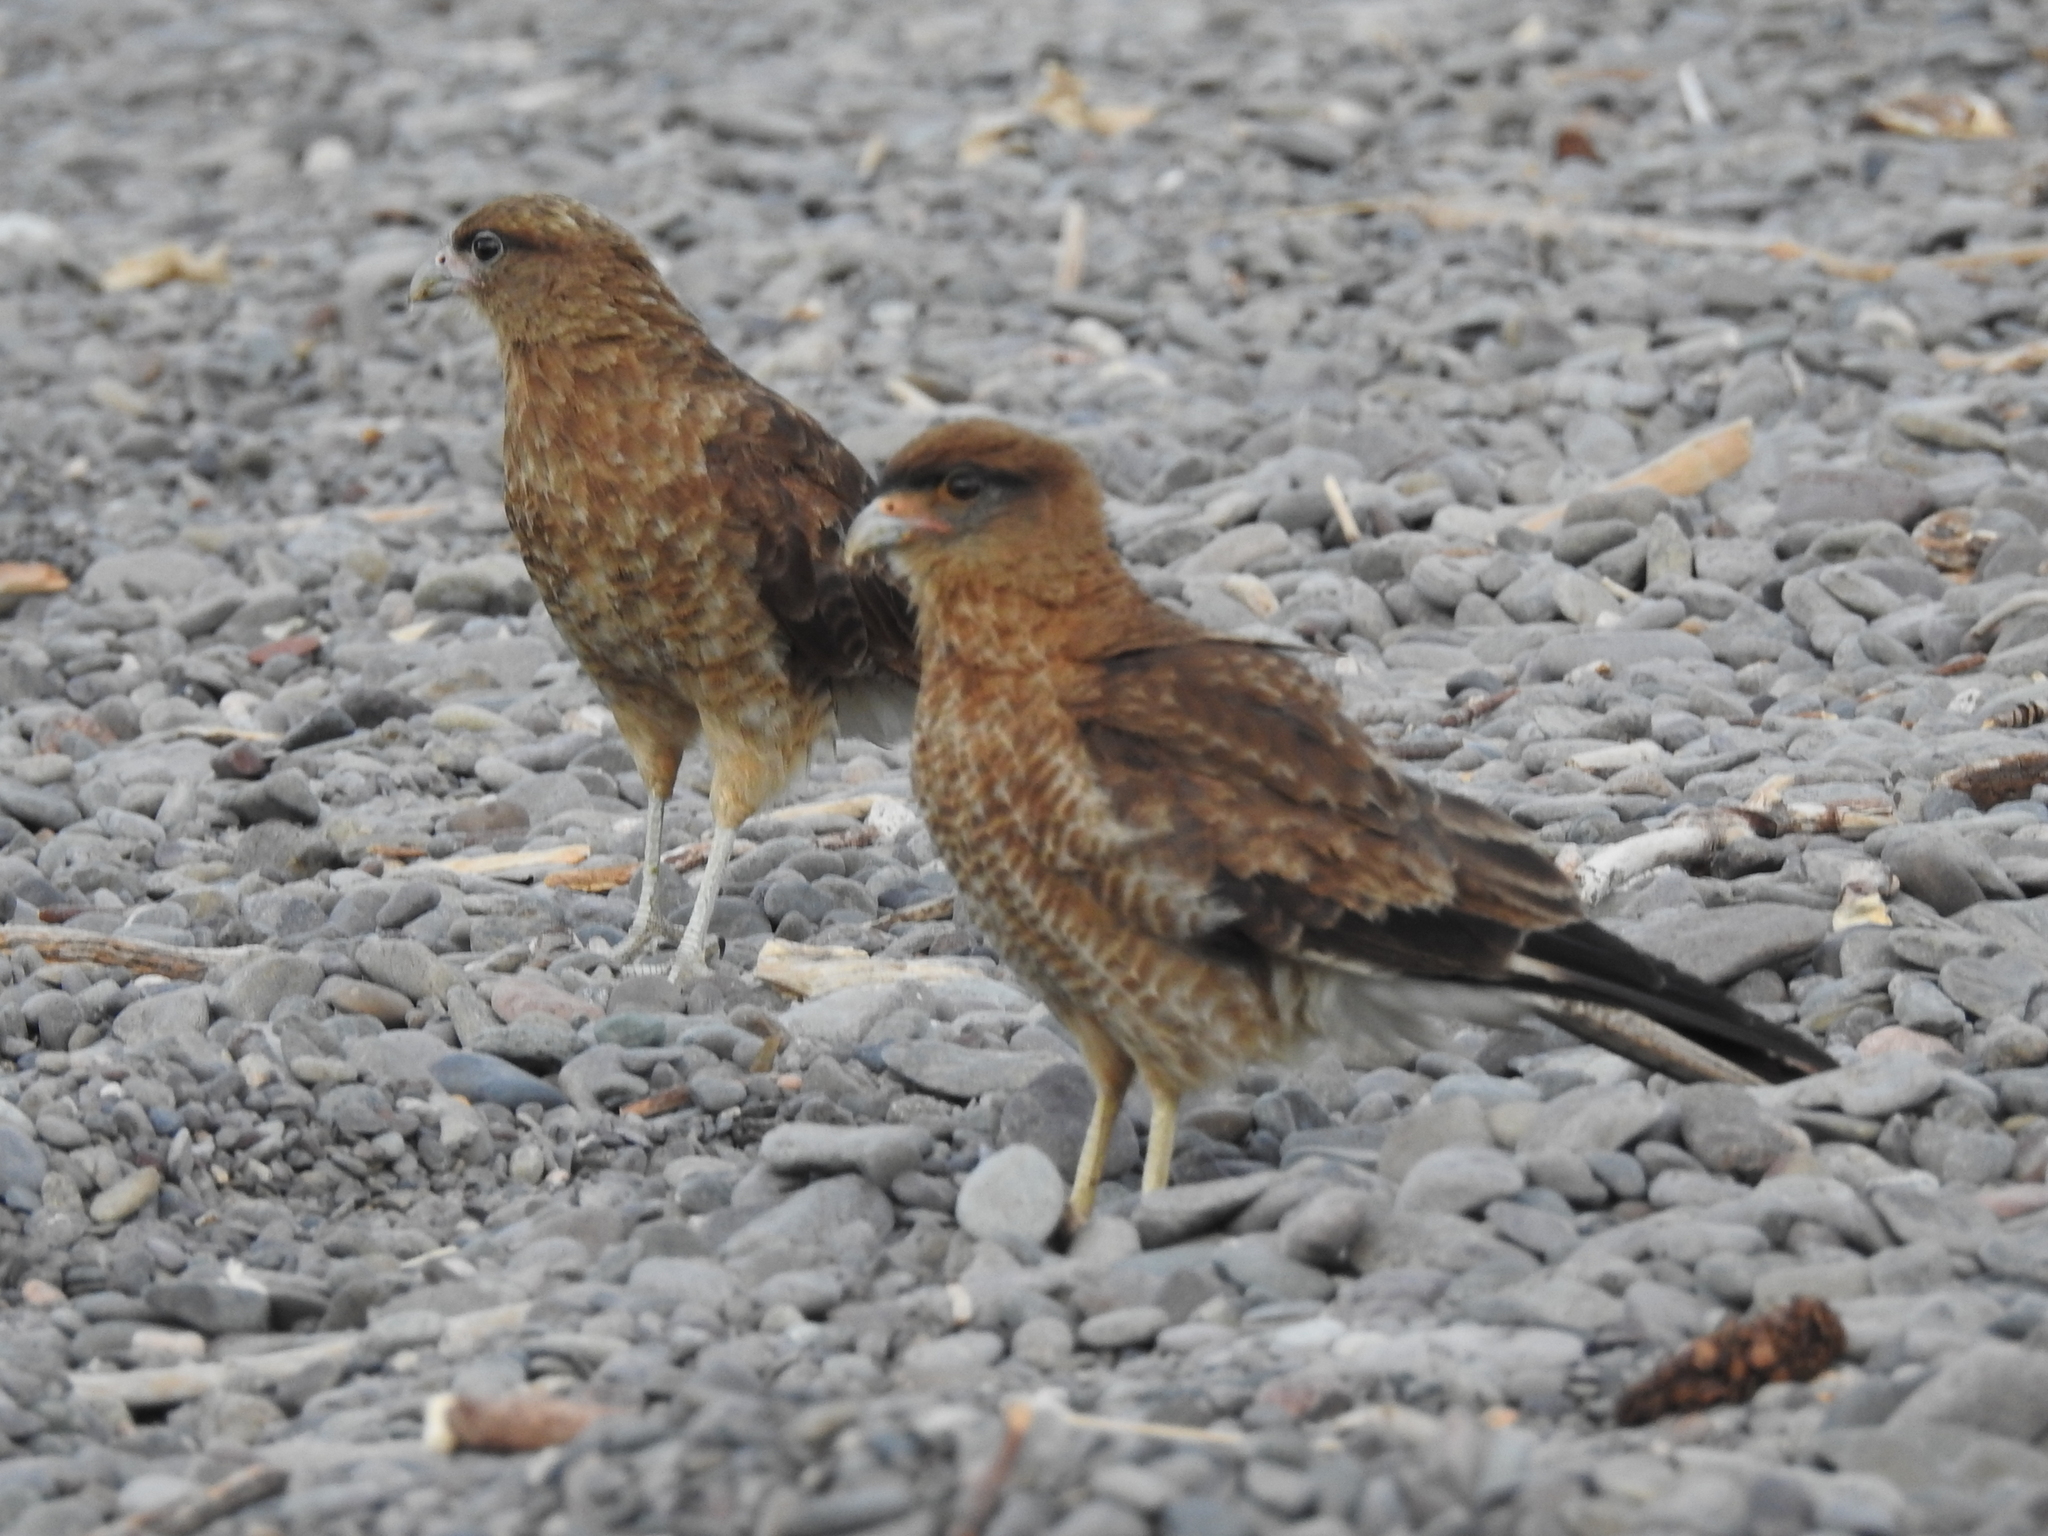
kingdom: Animalia
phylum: Chordata
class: Aves
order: Falconiformes
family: Falconidae
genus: Daptrius
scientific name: Daptrius
